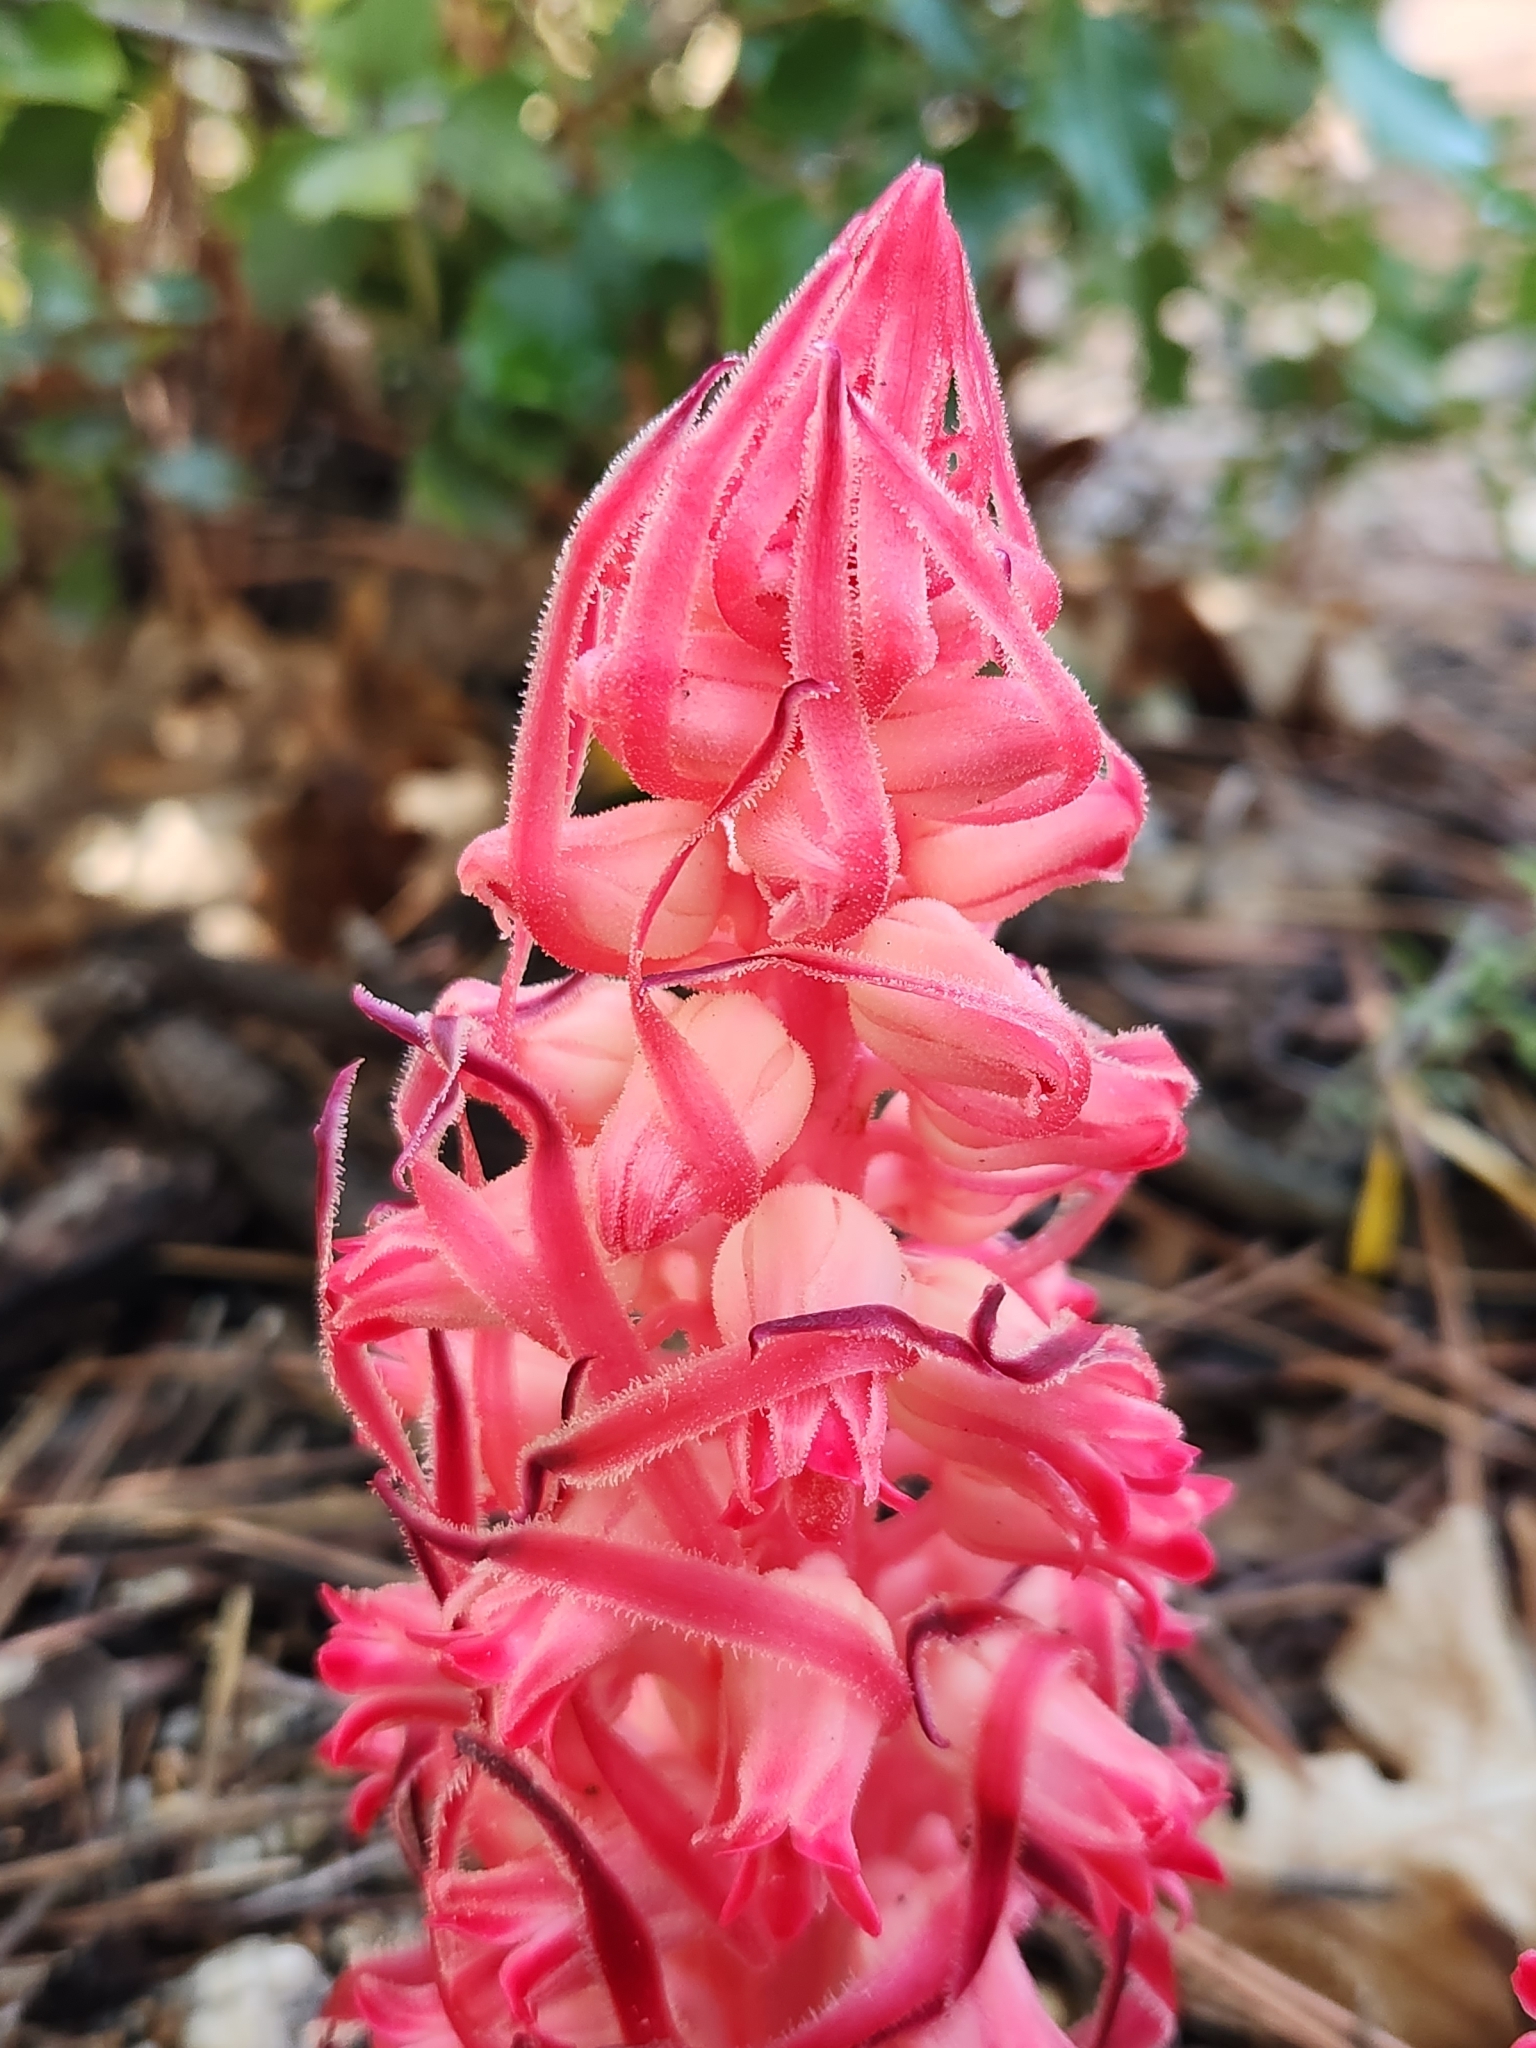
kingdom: Plantae
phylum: Tracheophyta
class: Magnoliopsida
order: Ericales
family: Ericaceae
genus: Sarcodes
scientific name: Sarcodes sanguinea
